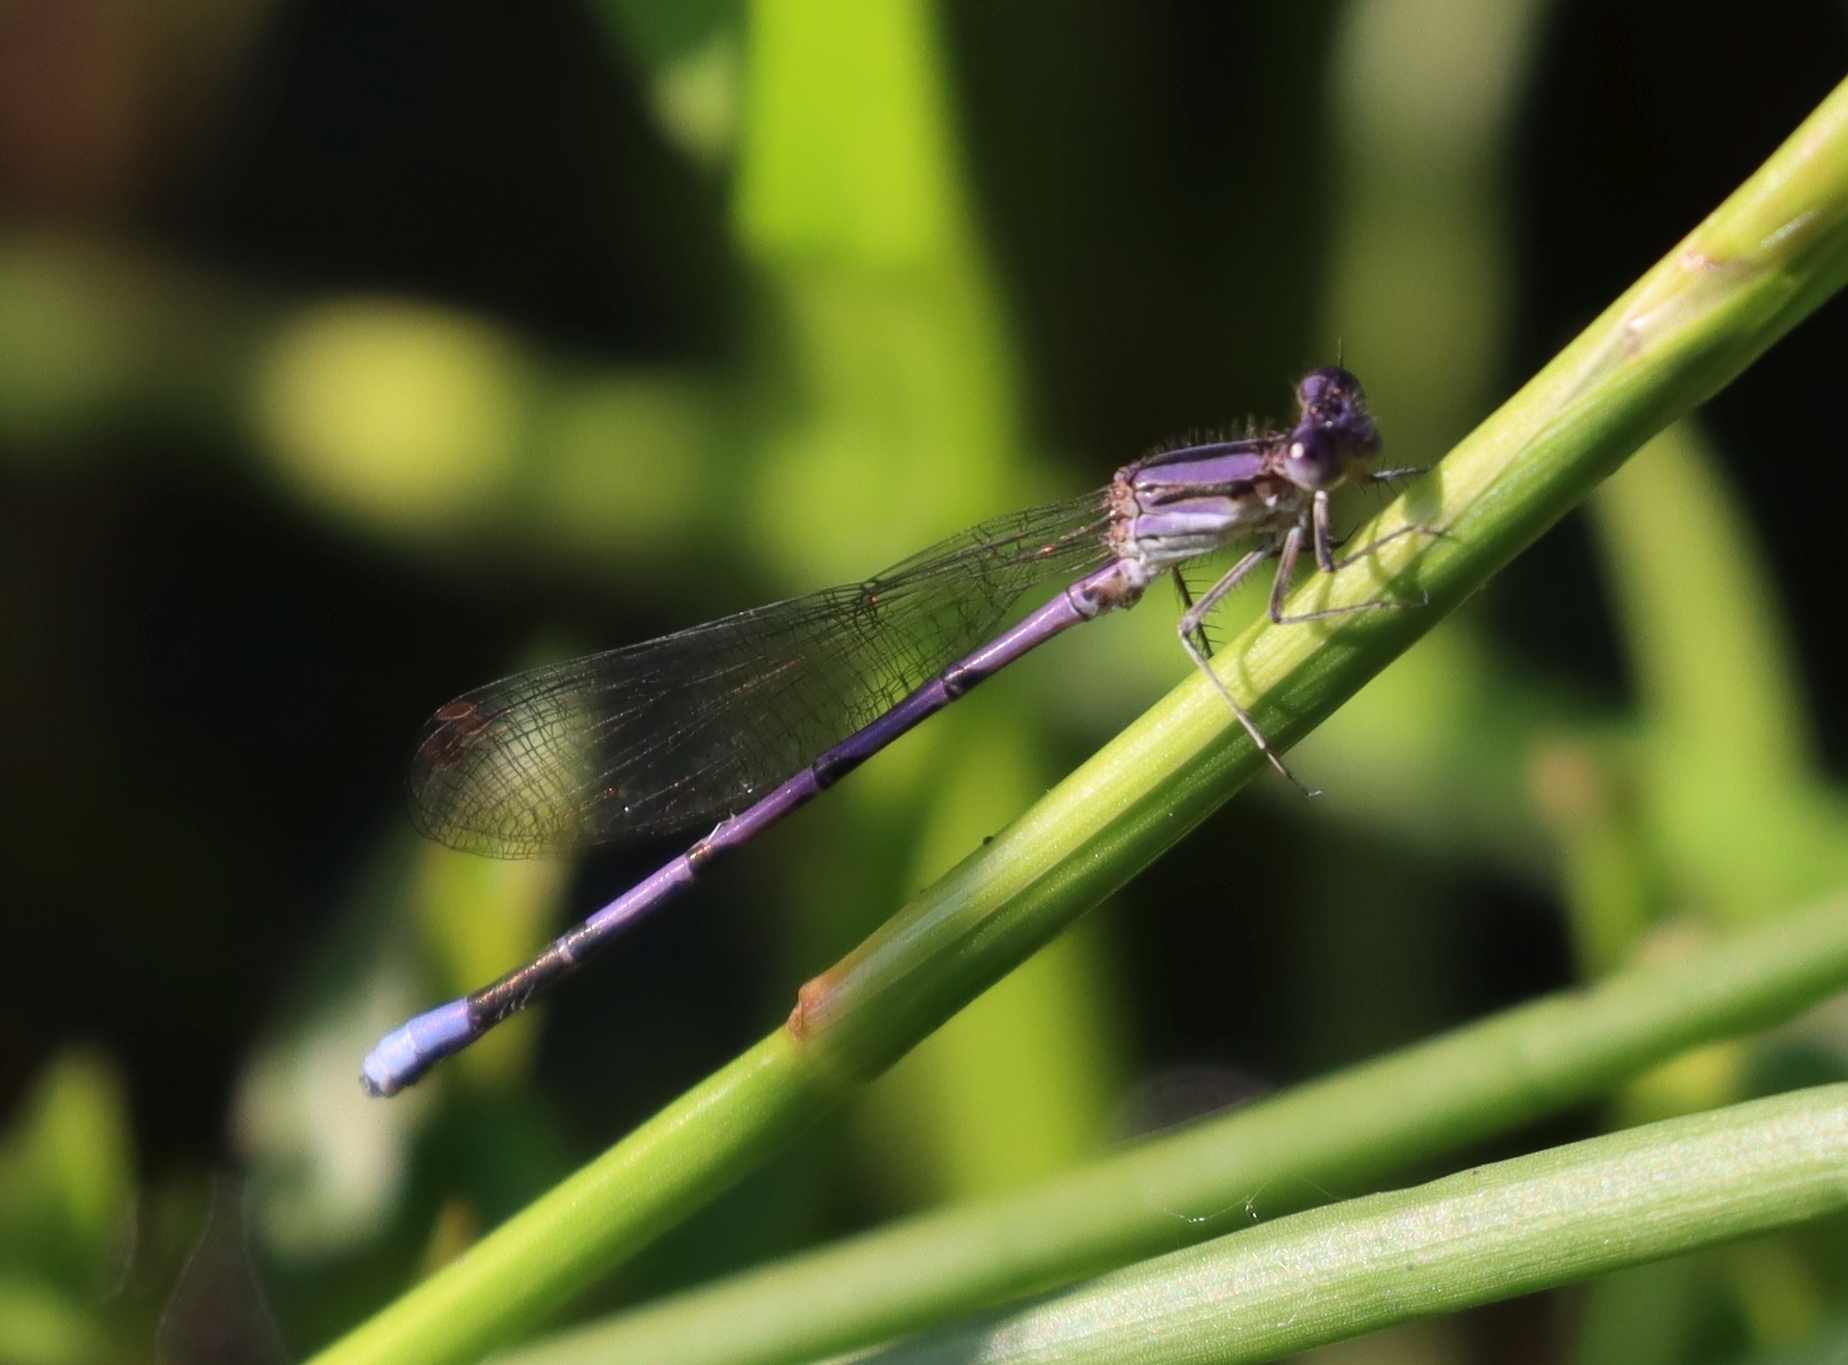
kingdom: Animalia
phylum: Arthropoda
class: Insecta
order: Odonata
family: Coenagrionidae
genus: Argia
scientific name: Argia fumipennis
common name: Variable dancer
